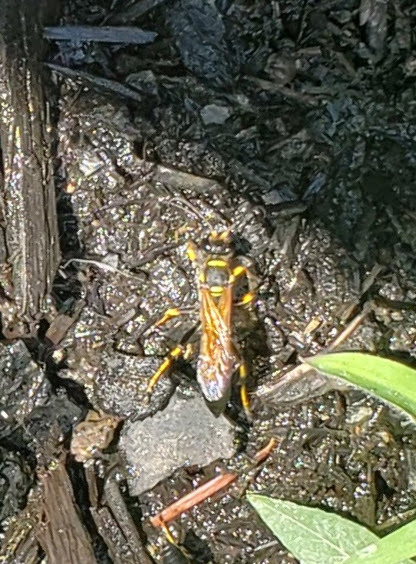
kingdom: Animalia
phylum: Arthropoda
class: Insecta
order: Hymenoptera
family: Sphecidae
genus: Sceliphron
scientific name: Sceliphron caementarium
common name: Mud dauber
